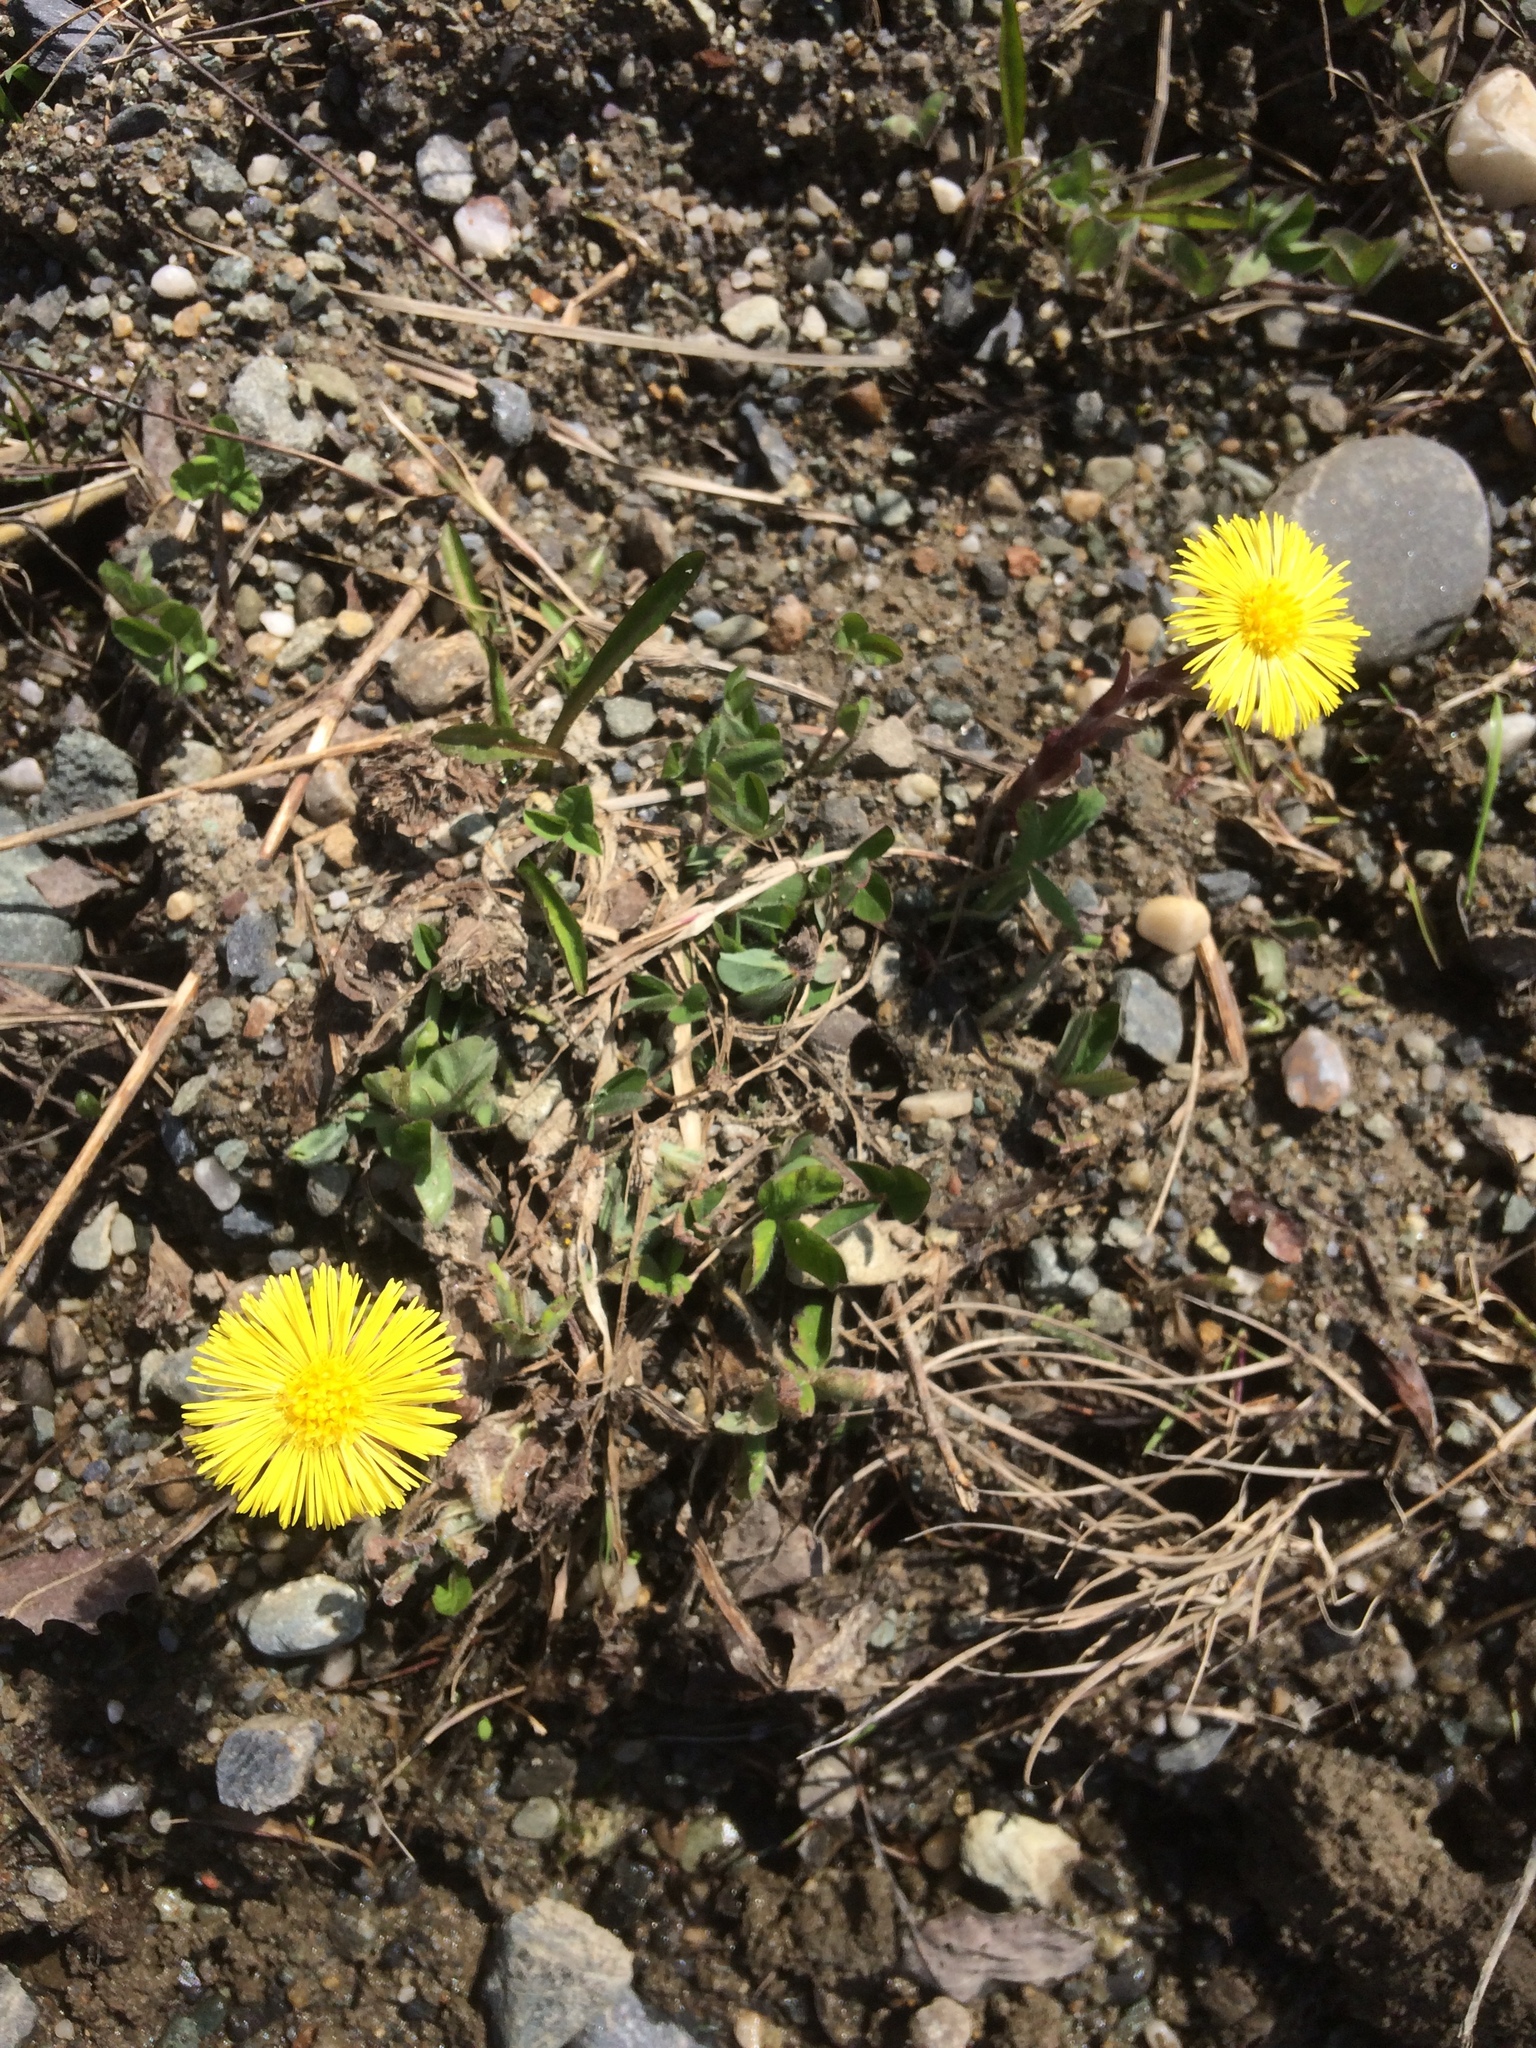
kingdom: Plantae
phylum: Tracheophyta
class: Magnoliopsida
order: Asterales
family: Asteraceae
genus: Tussilago
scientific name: Tussilago farfara
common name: Coltsfoot
